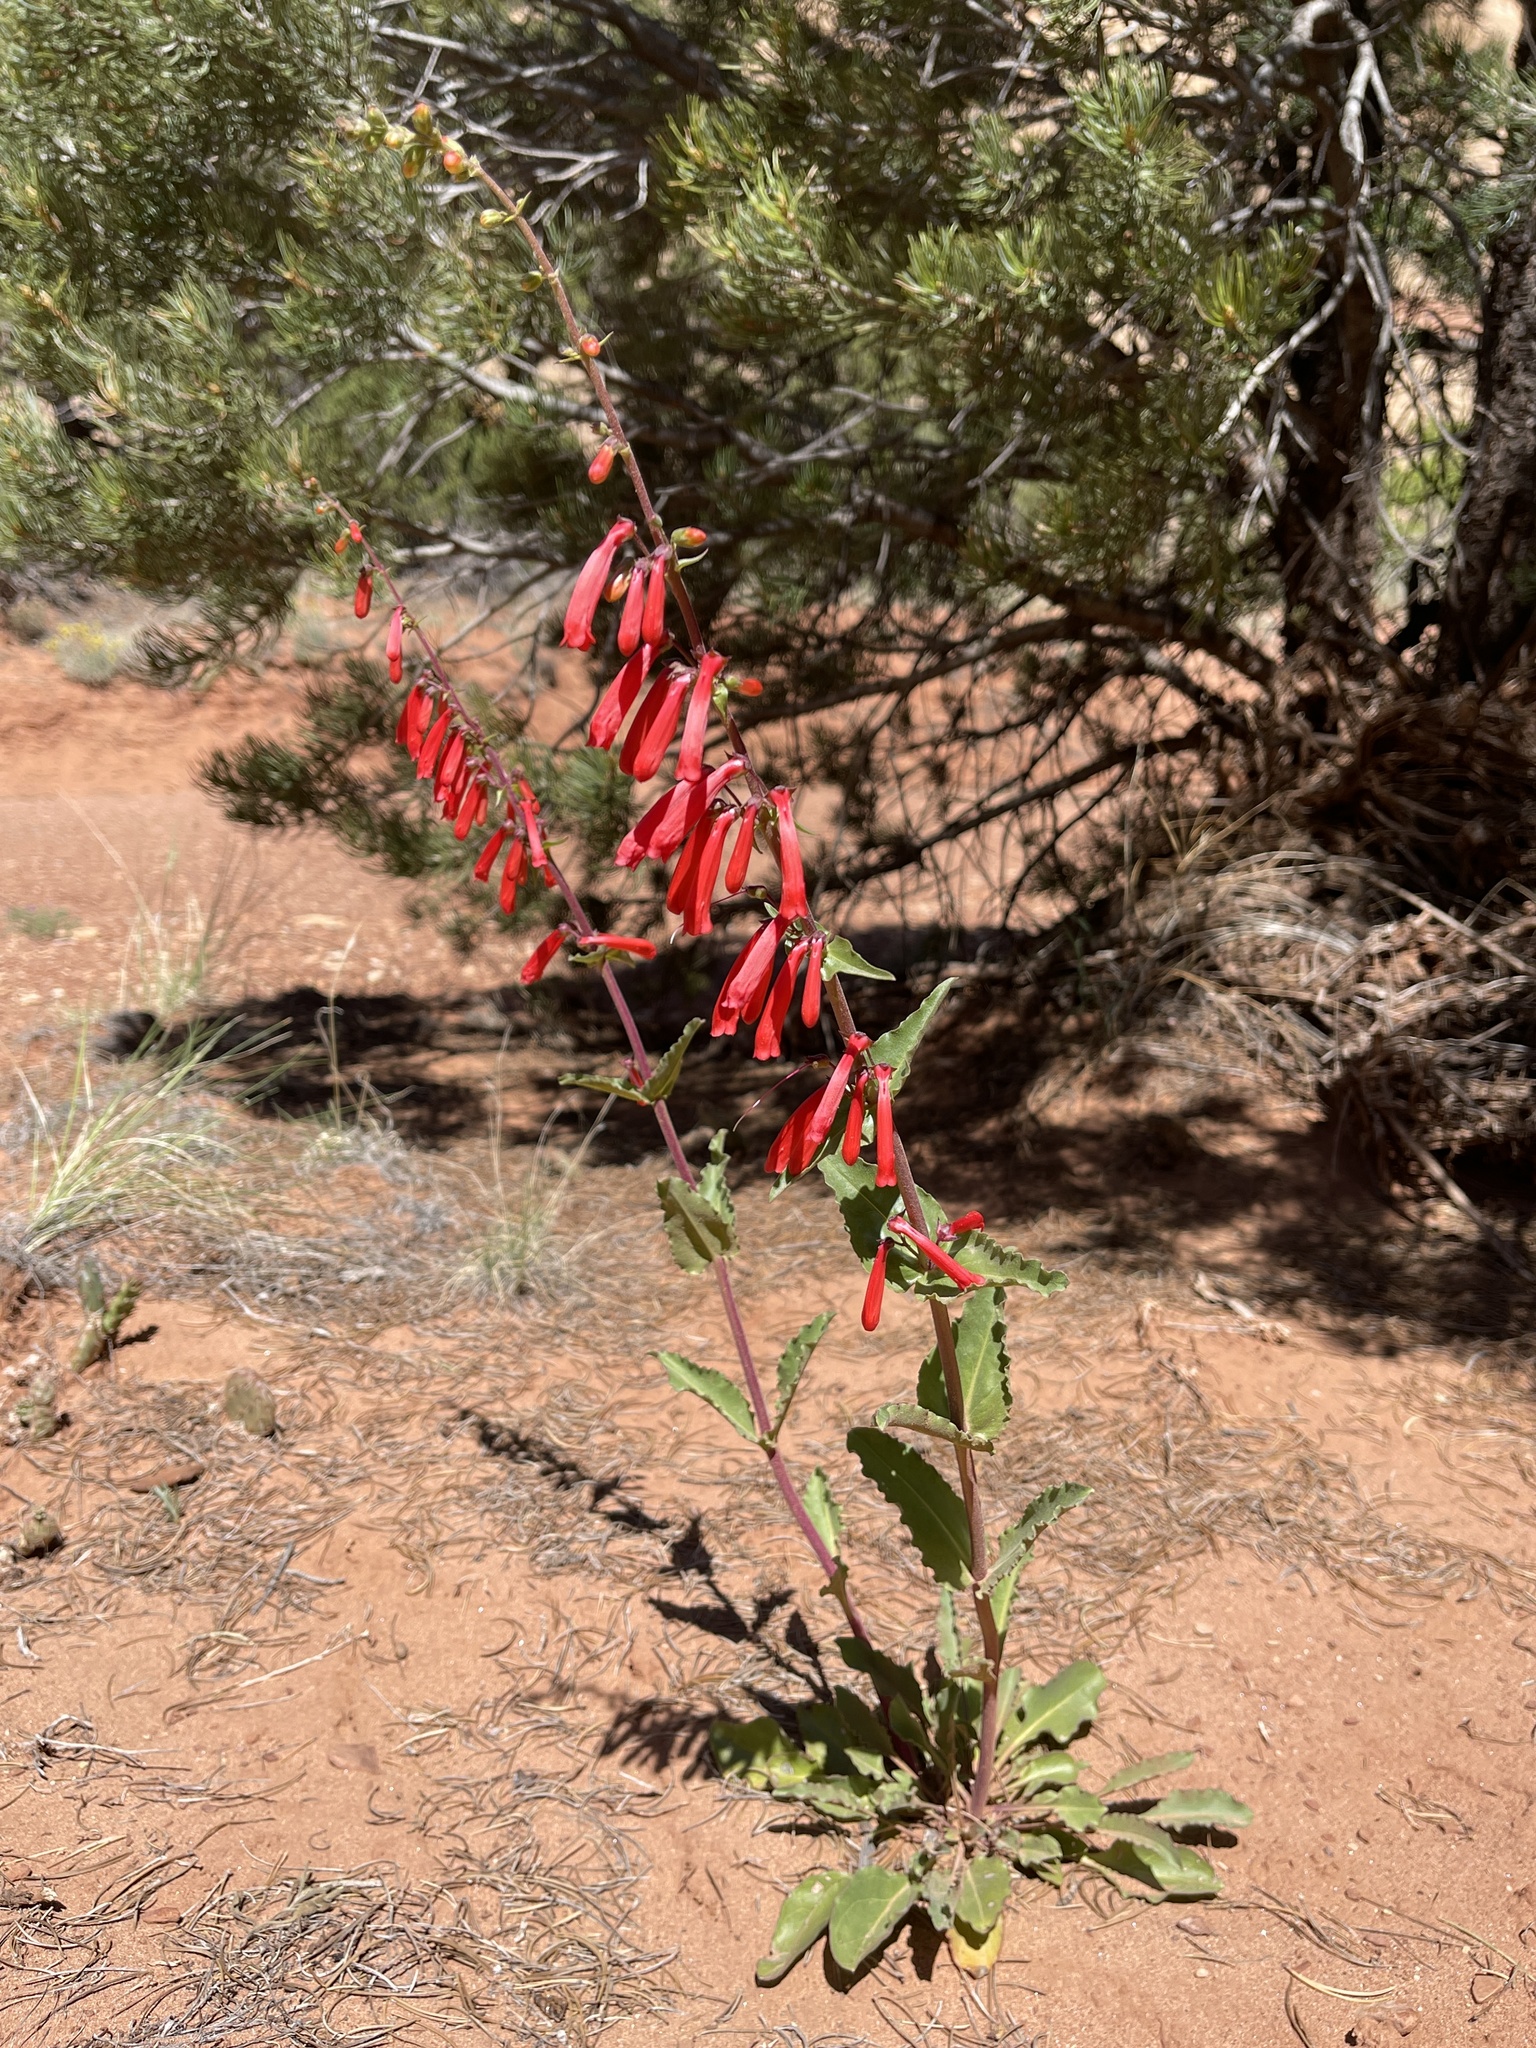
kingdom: Plantae
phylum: Tracheophyta
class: Magnoliopsida
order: Lamiales
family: Plantaginaceae
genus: Penstemon
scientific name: Penstemon eatonii
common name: Eaton's penstemon
